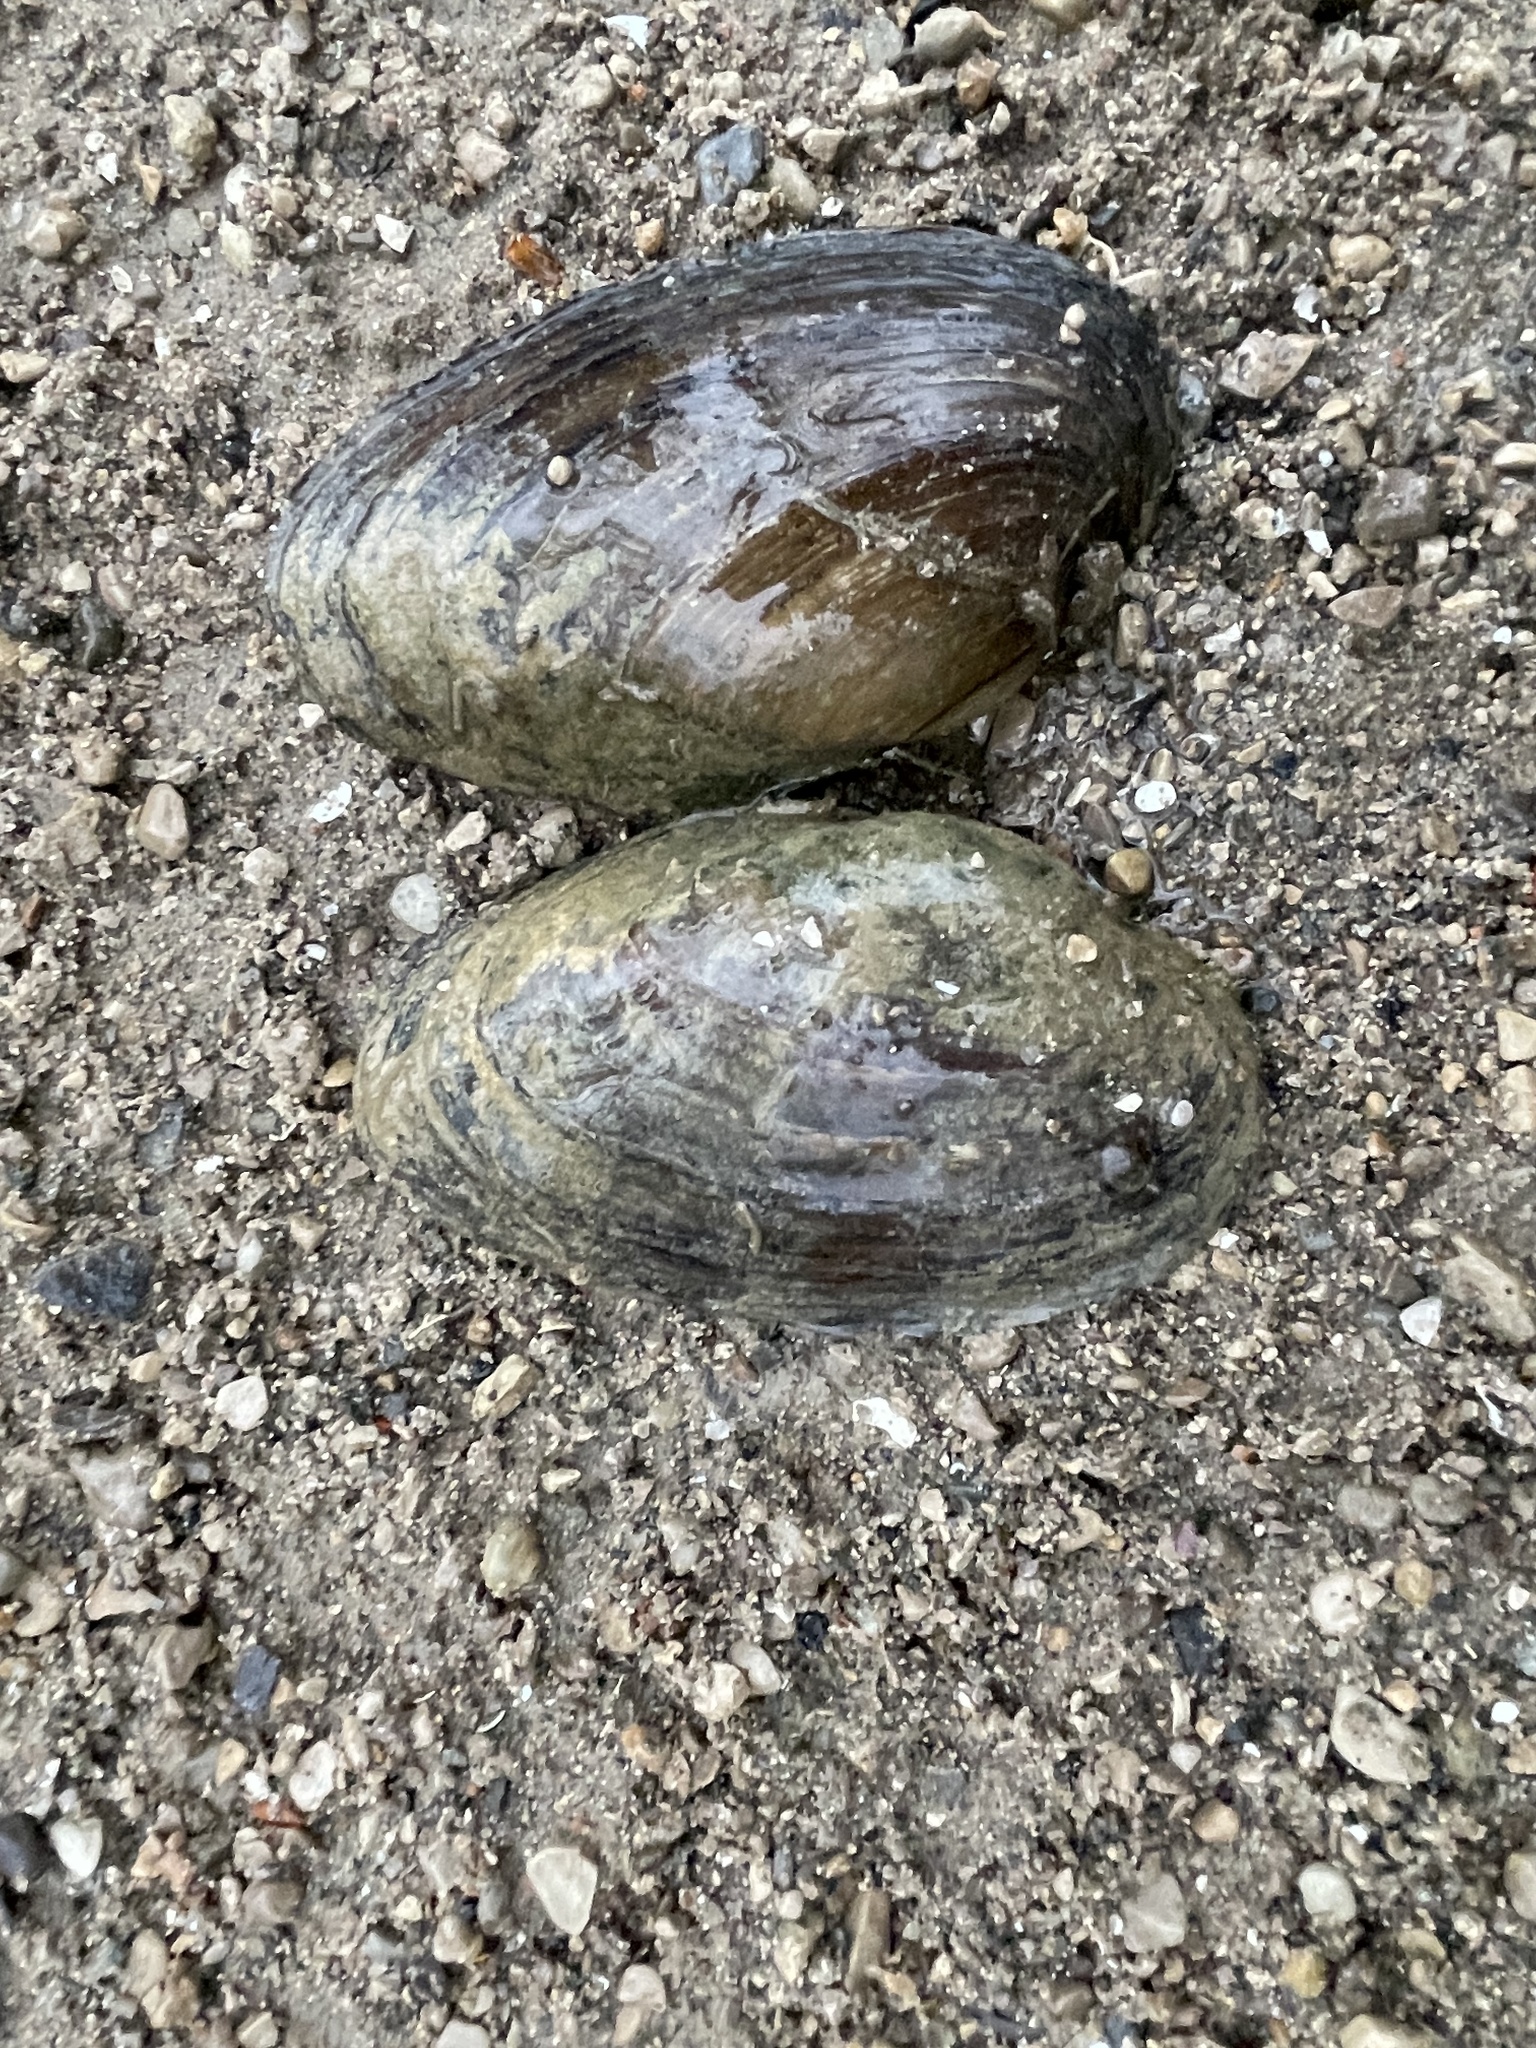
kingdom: Animalia
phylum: Mollusca
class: Bivalvia
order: Unionida
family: Unionidae
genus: Pyganodon
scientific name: Pyganodon grandis
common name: Giant floater
